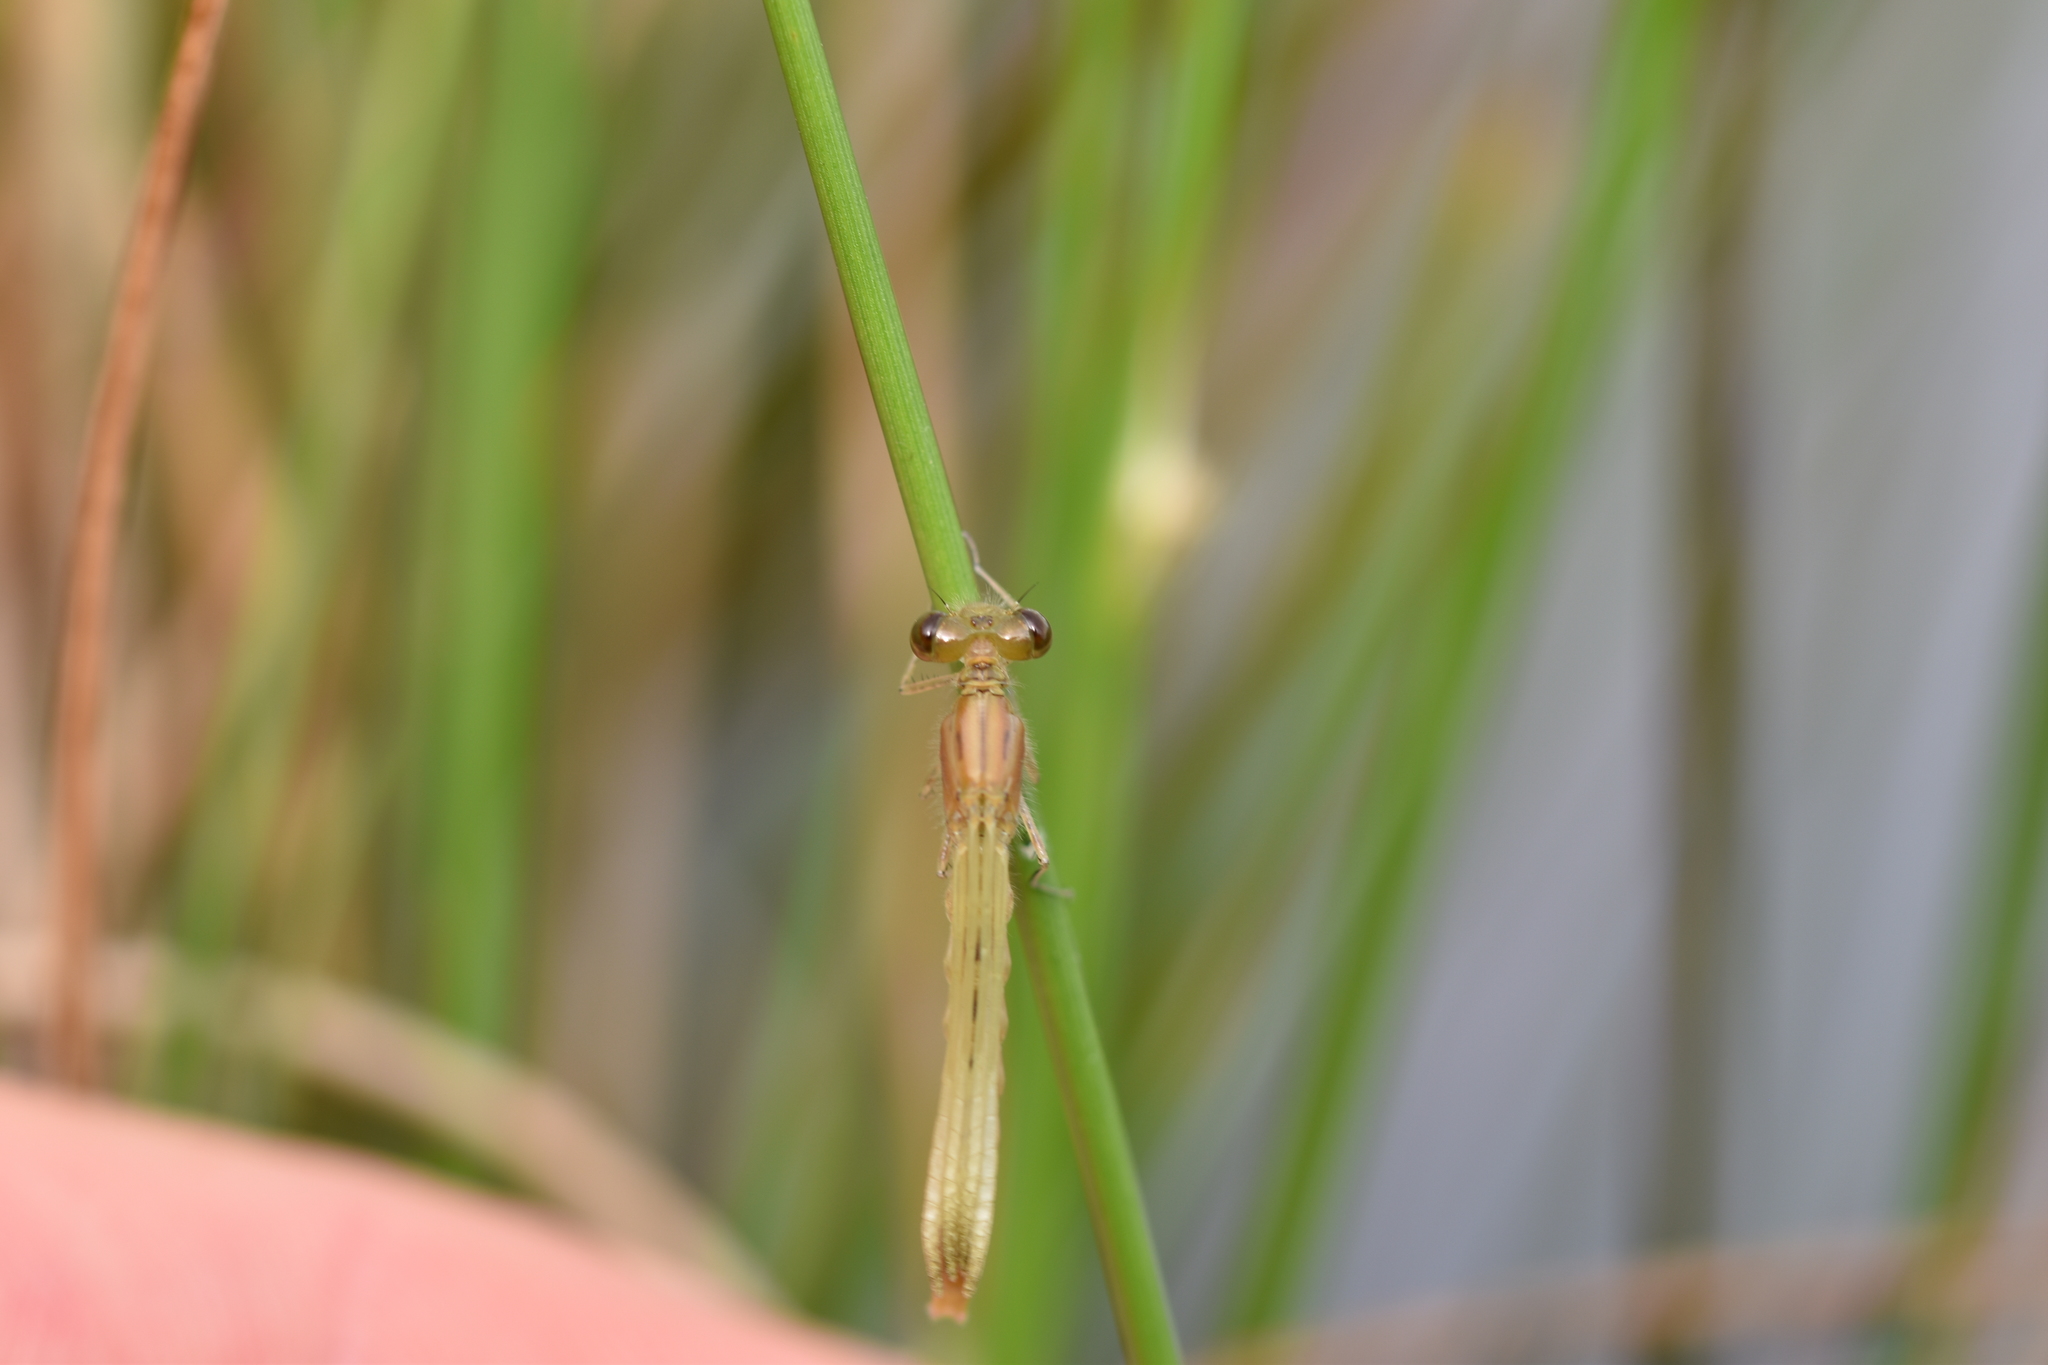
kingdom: Animalia
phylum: Arthropoda
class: Insecta
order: Odonata
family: Coenagrionidae
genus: Enallagma
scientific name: Enallagma cyathigerum
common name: Common blue damselfly
